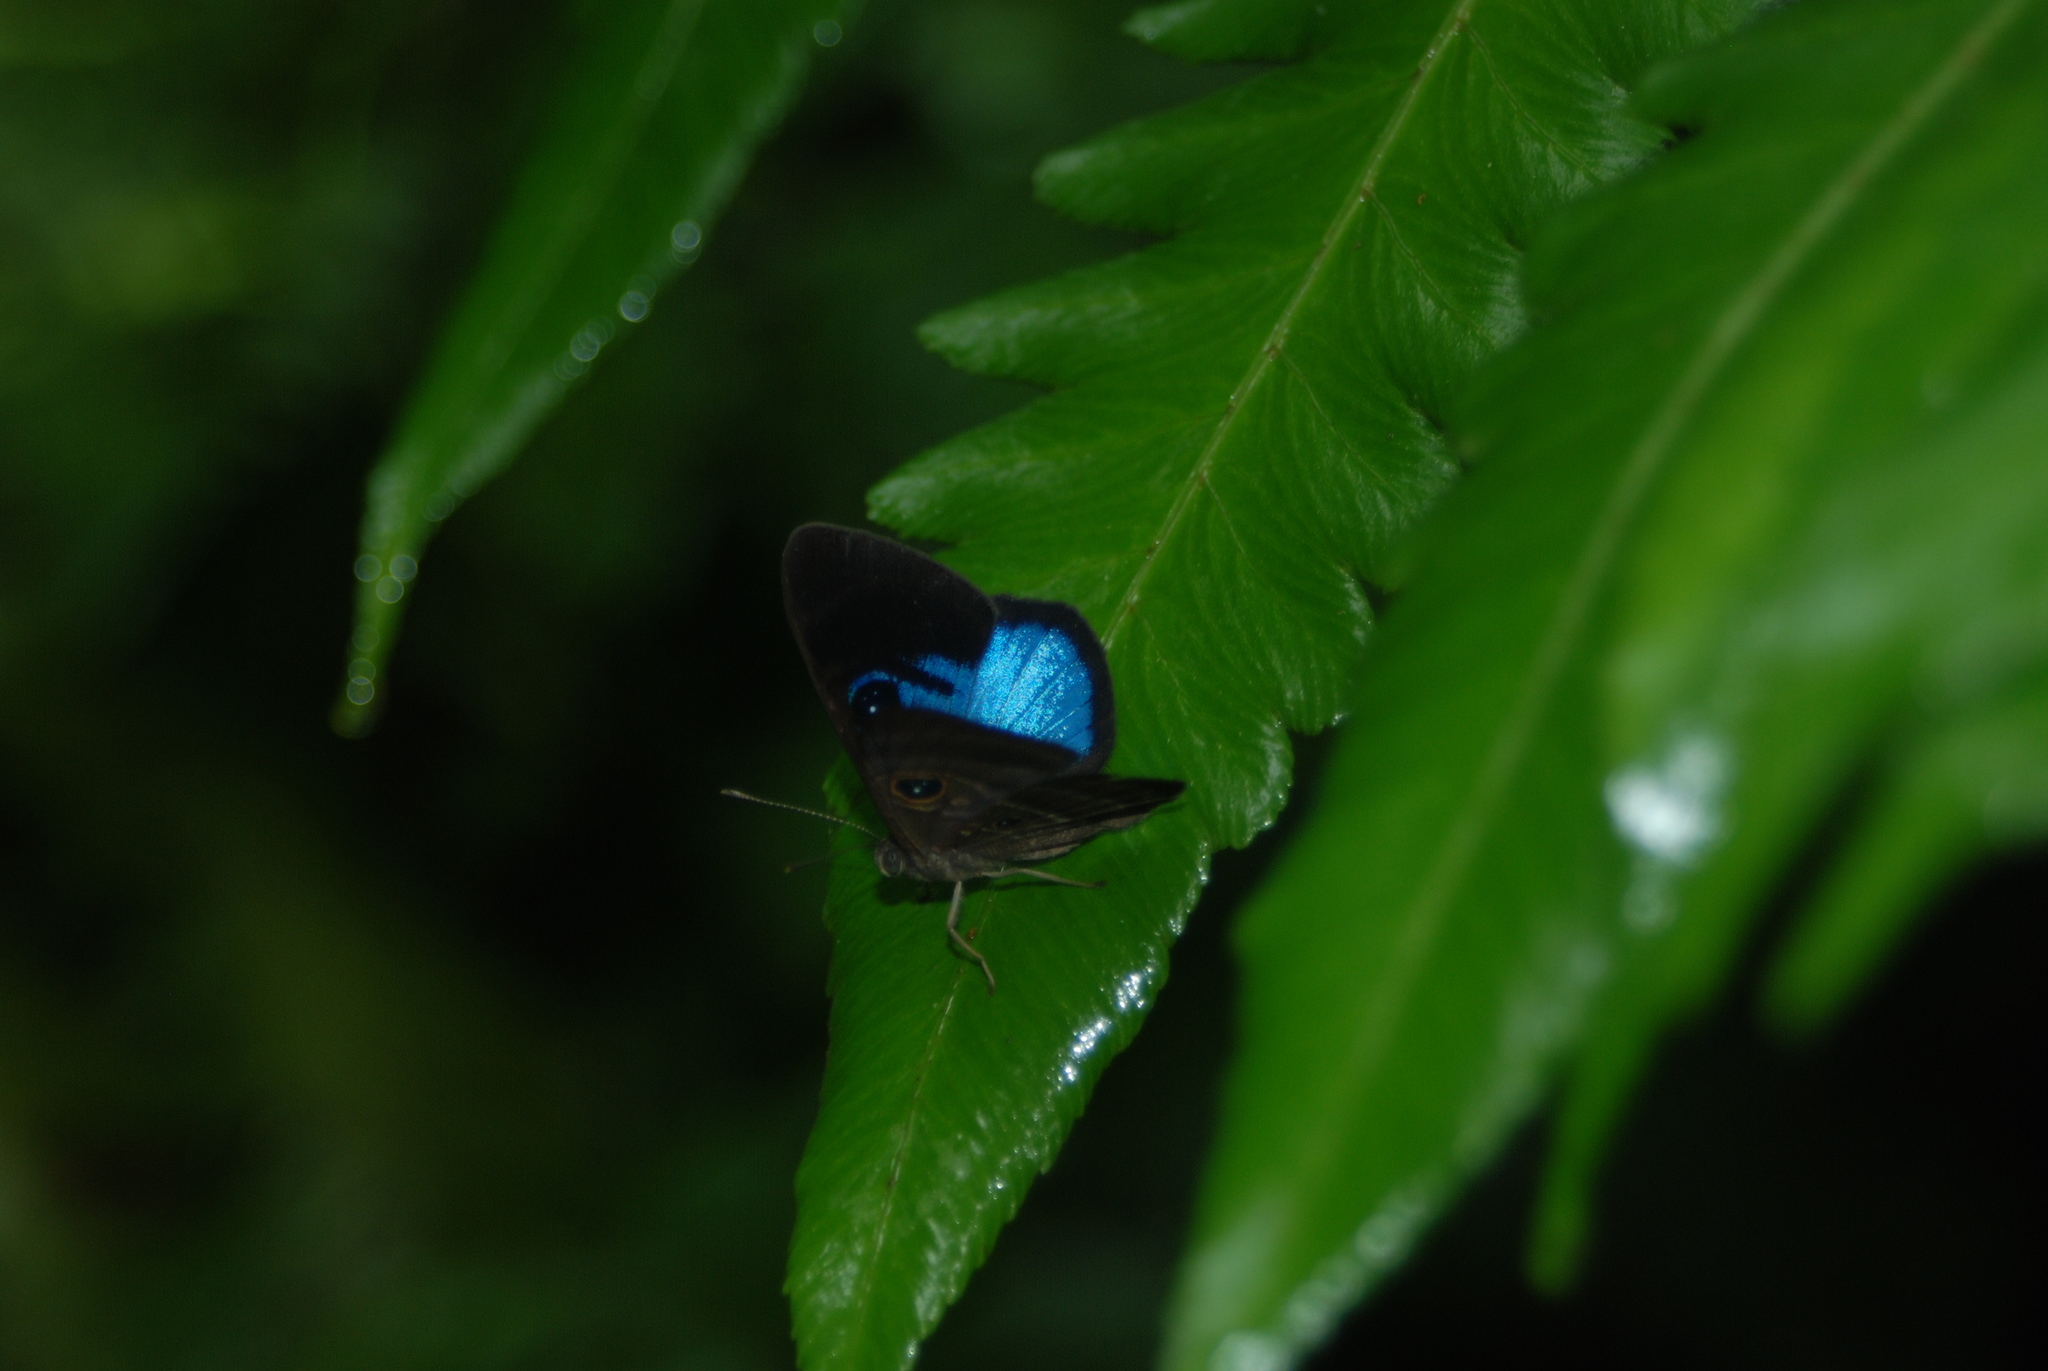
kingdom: Animalia
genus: Mesosemia
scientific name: Mesosemia asa
